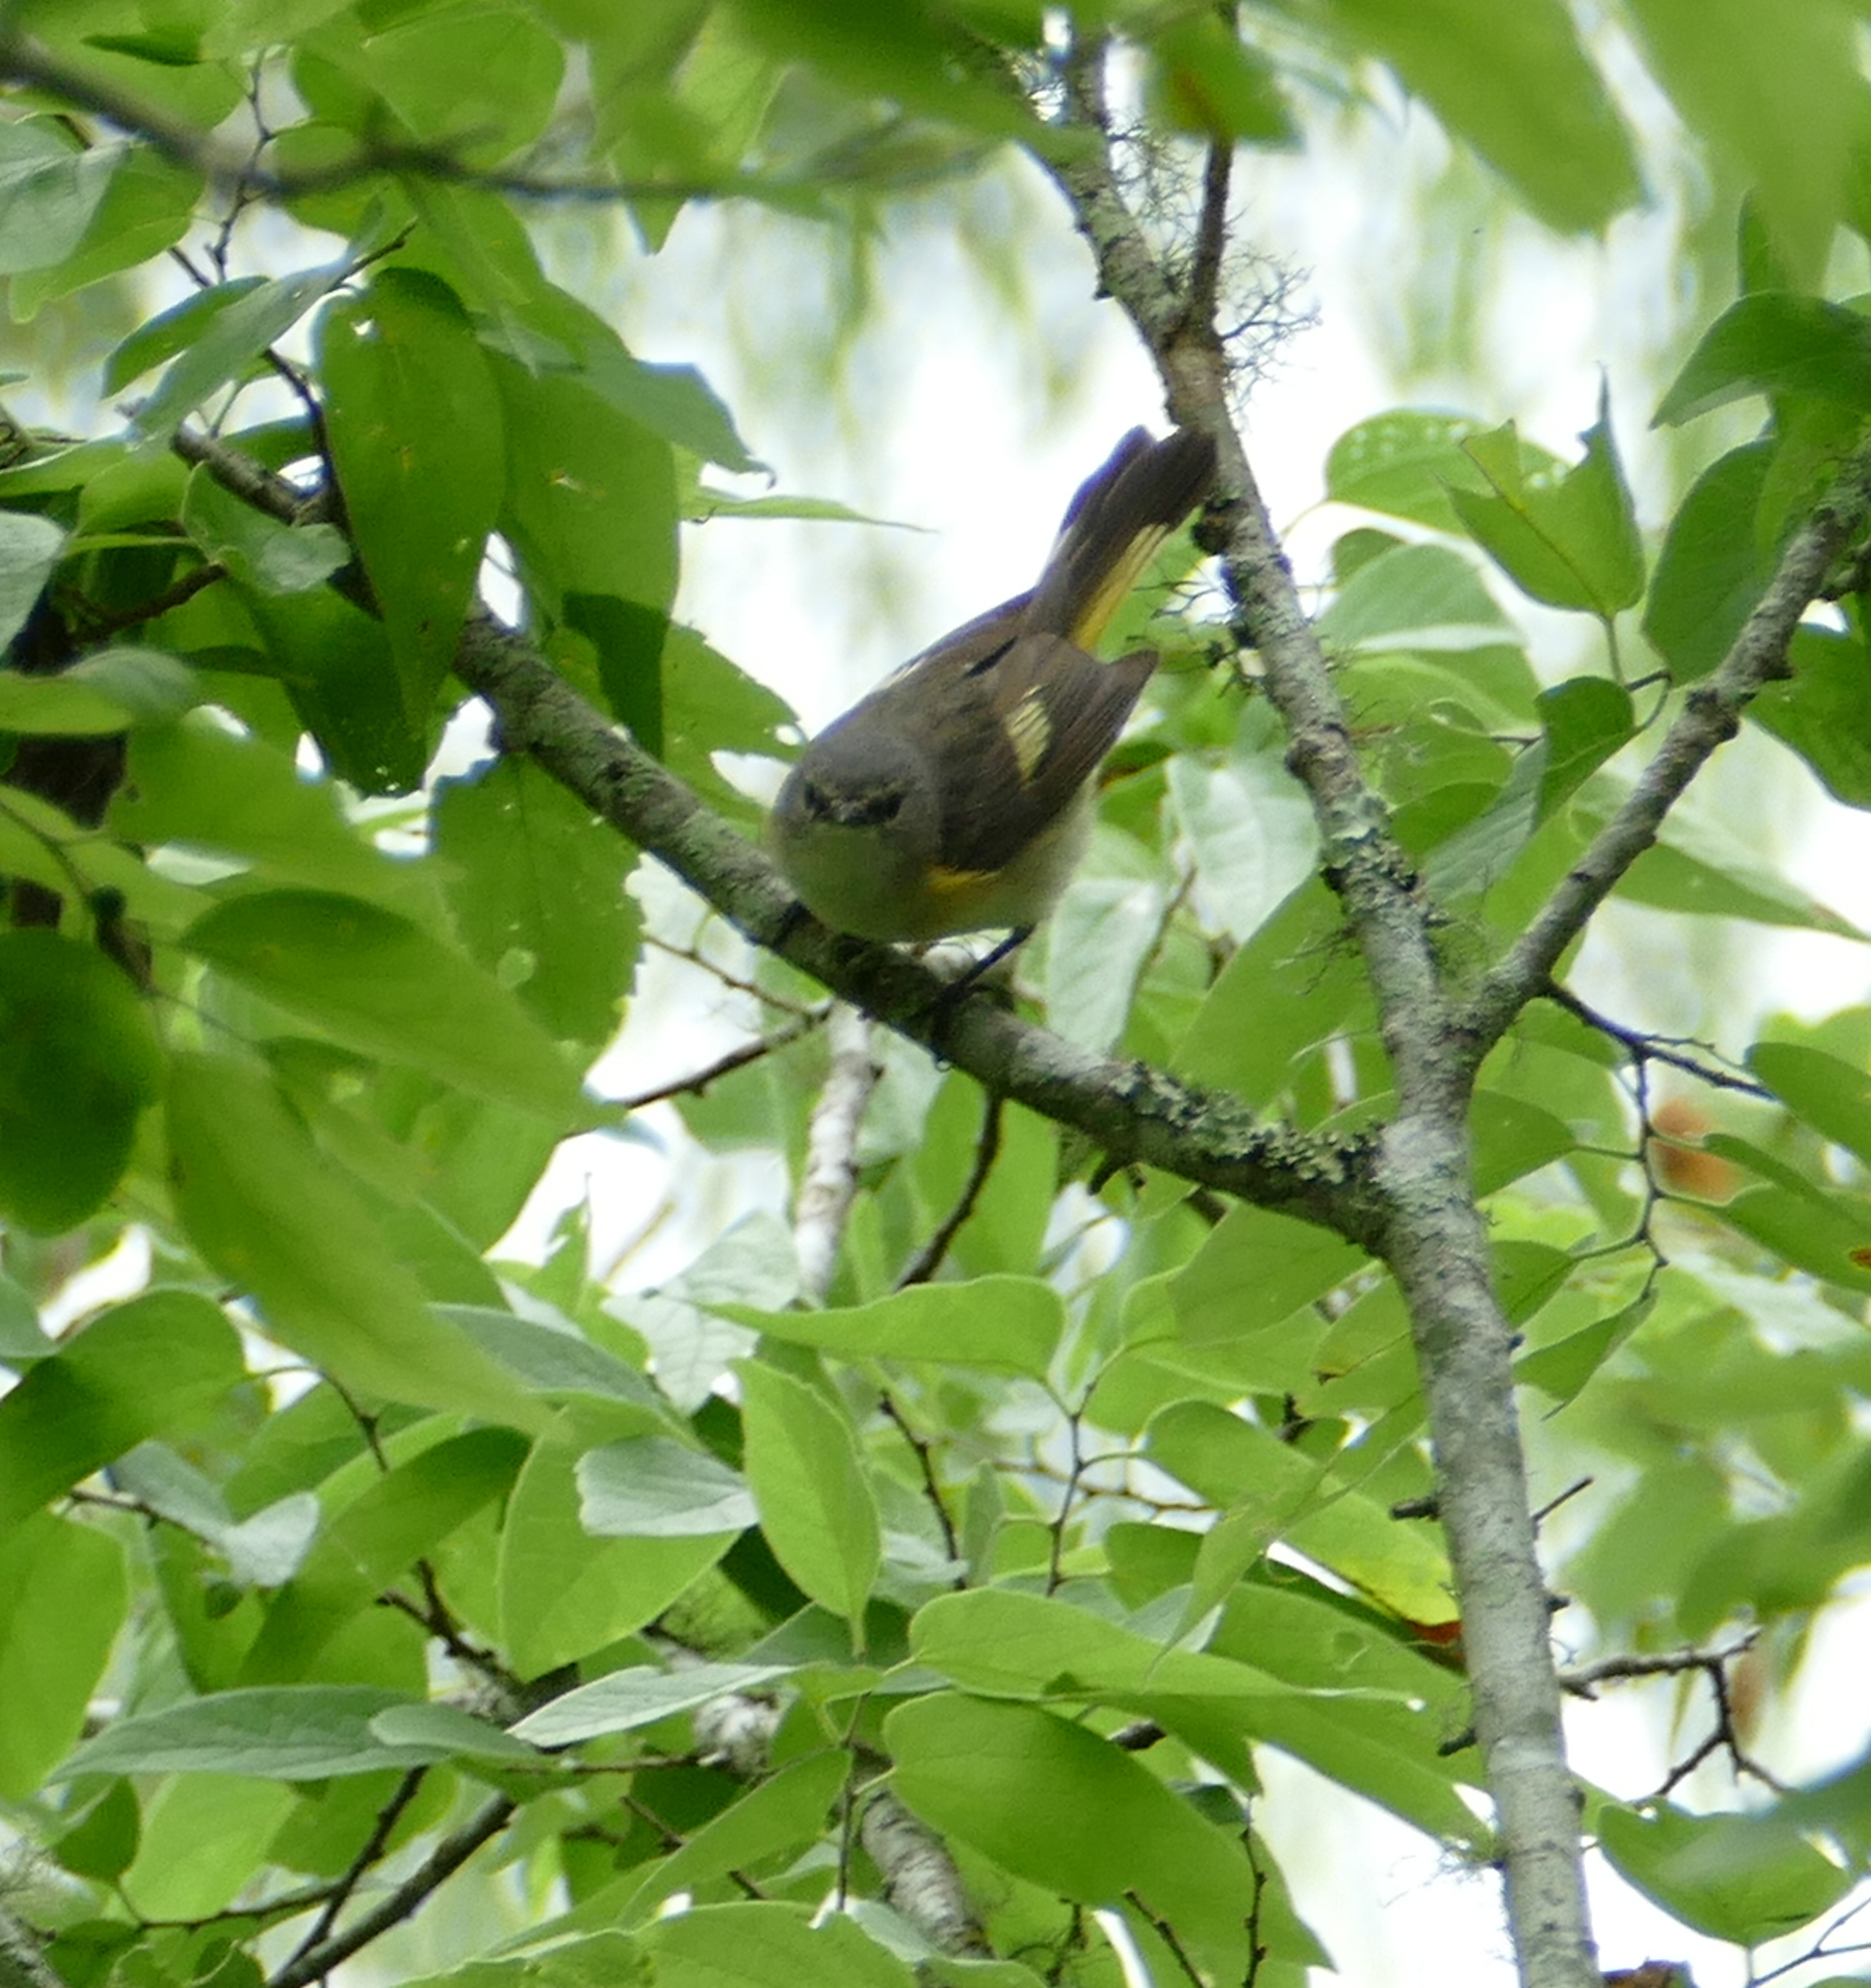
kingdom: Animalia
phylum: Chordata
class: Aves
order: Passeriformes
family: Parulidae
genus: Setophaga
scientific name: Setophaga ruticilla
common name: American redstart
